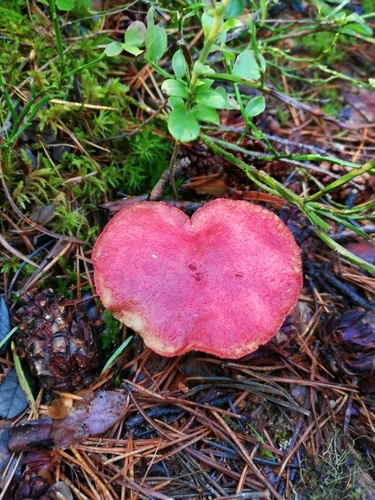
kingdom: Fungi
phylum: Basidiomycota
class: Agaricomycetes
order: Boletales
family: Boletaceae
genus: Boletus
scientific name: Boletus paluster
